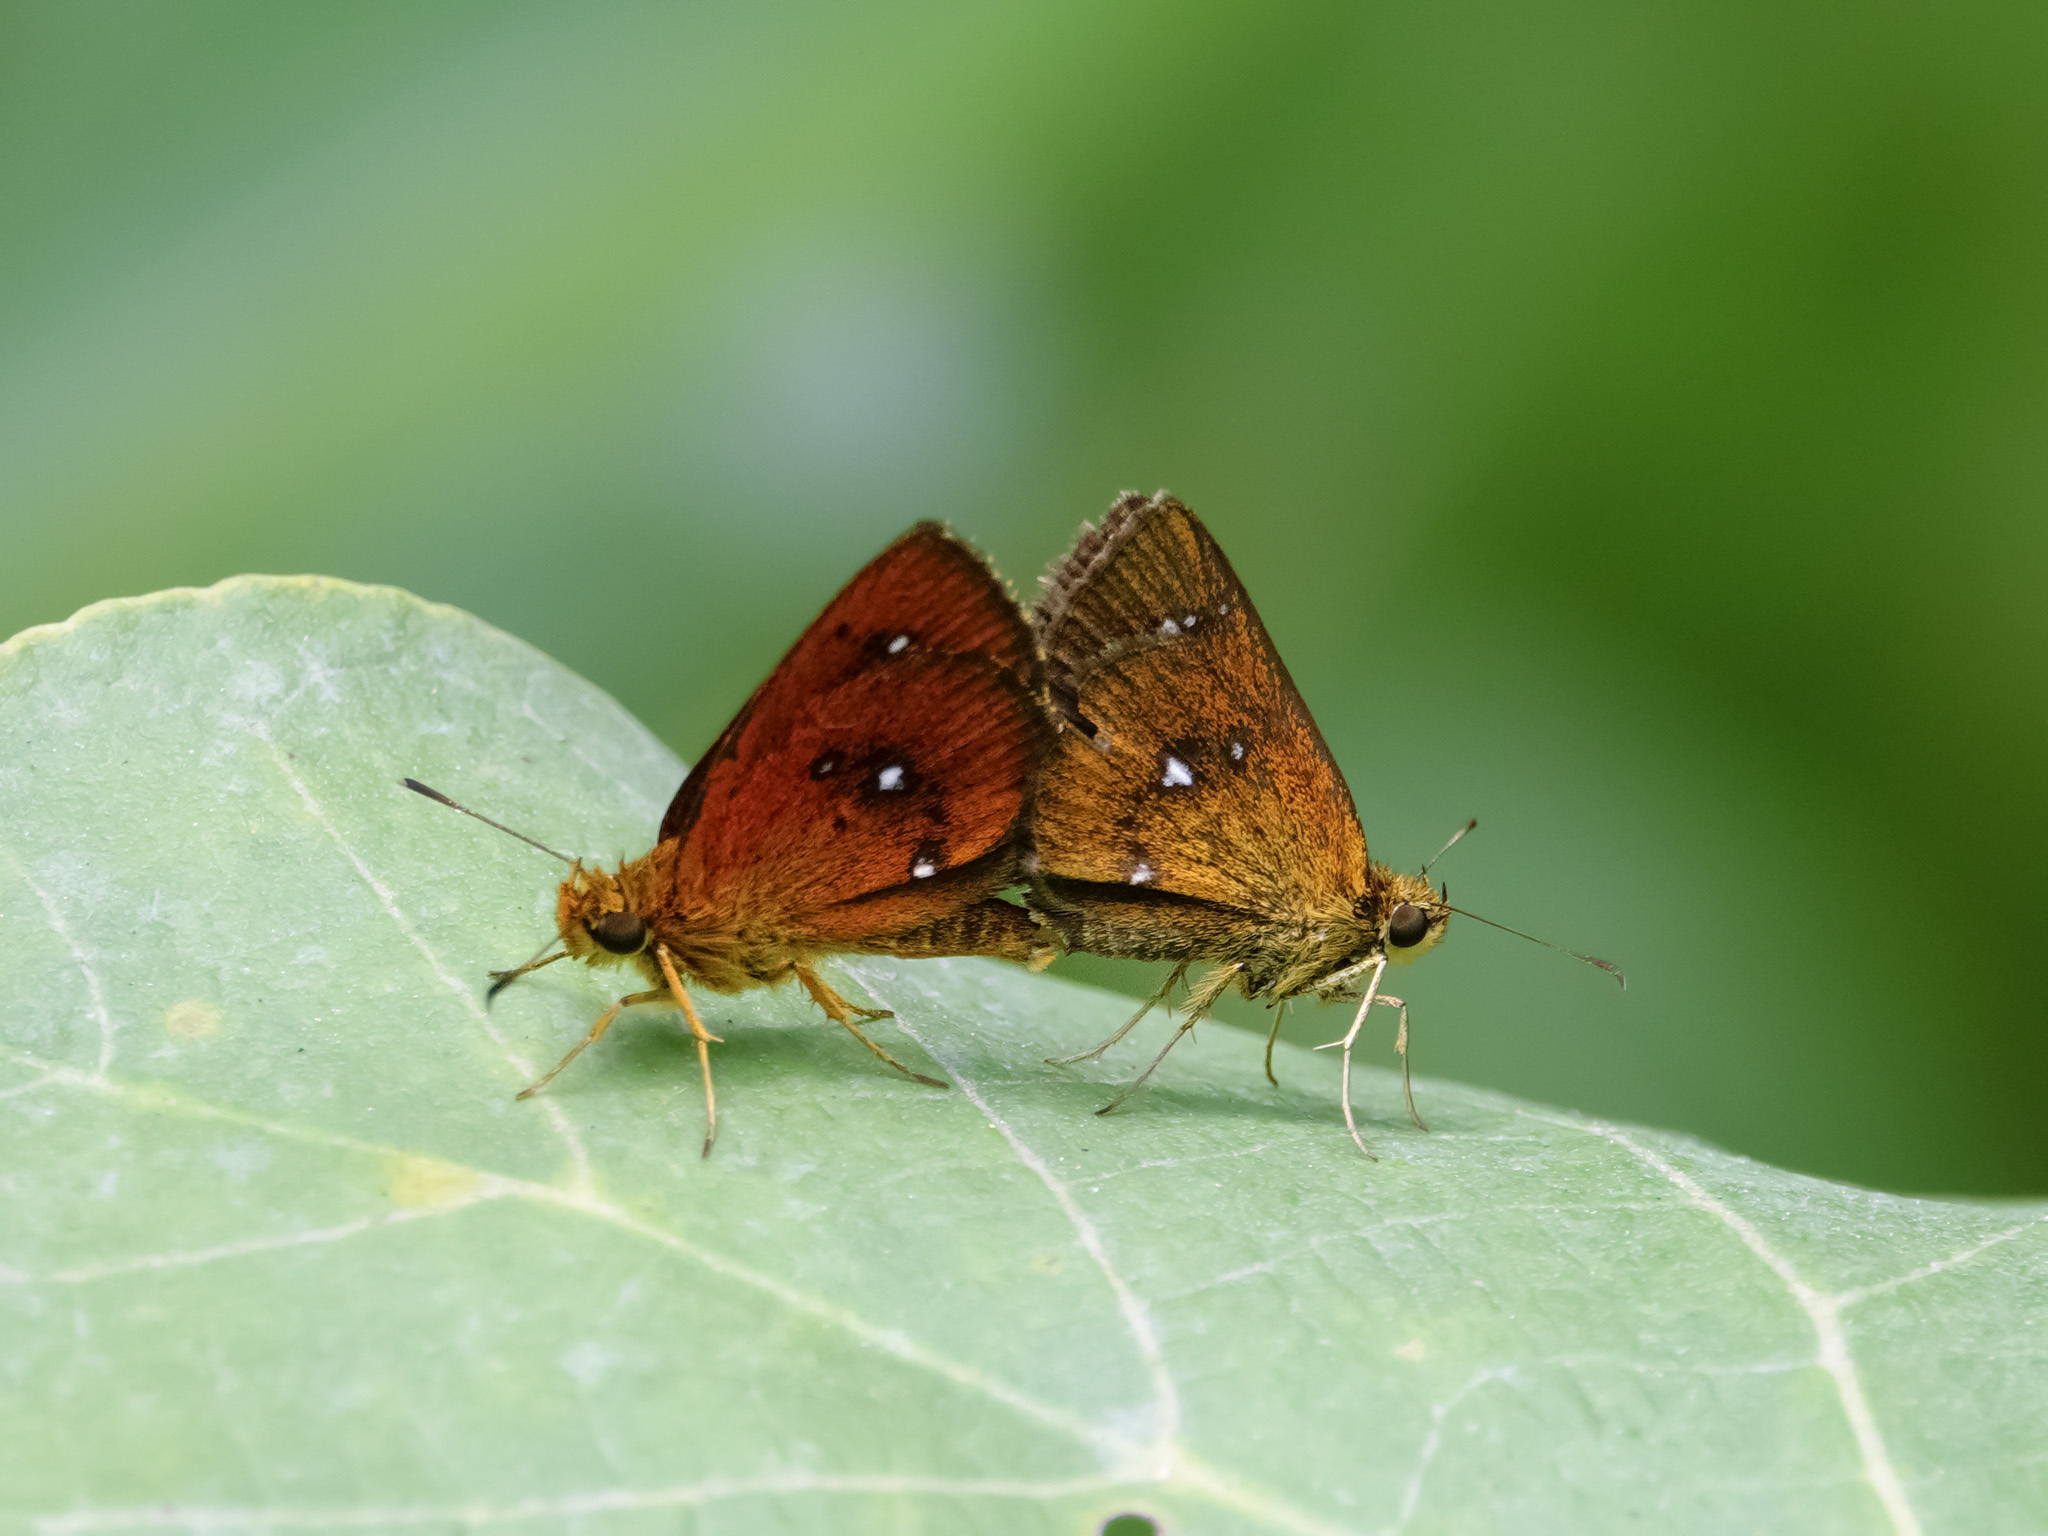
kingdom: Animalia
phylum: Arthropoda
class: Insecta
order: Lepidoptera
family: Hesperiidae
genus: Iambrix
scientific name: Iambrix salsala
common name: Chestnut bob
